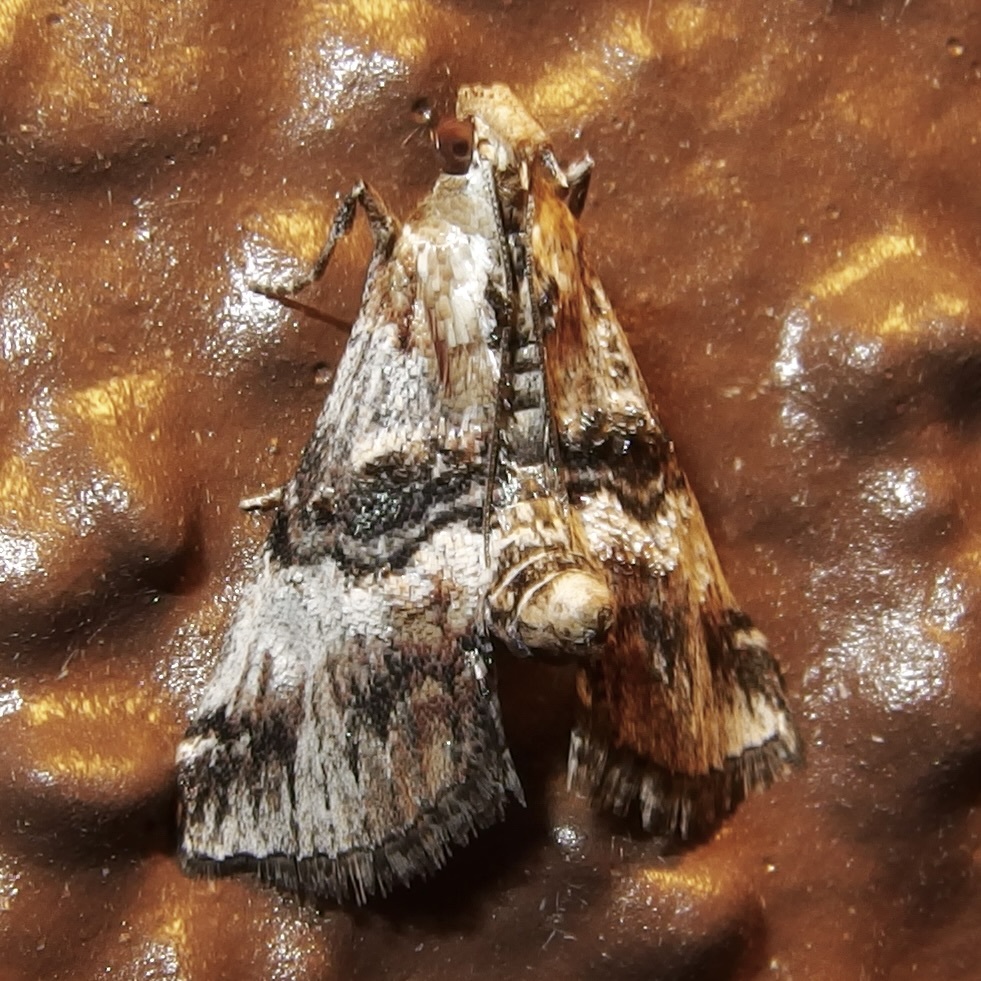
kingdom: Animalia
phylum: Arthropoda
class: Insecta
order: Lepidoptera
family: Pyralidae
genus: Toripalpus
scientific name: Toripalpus trabalis
